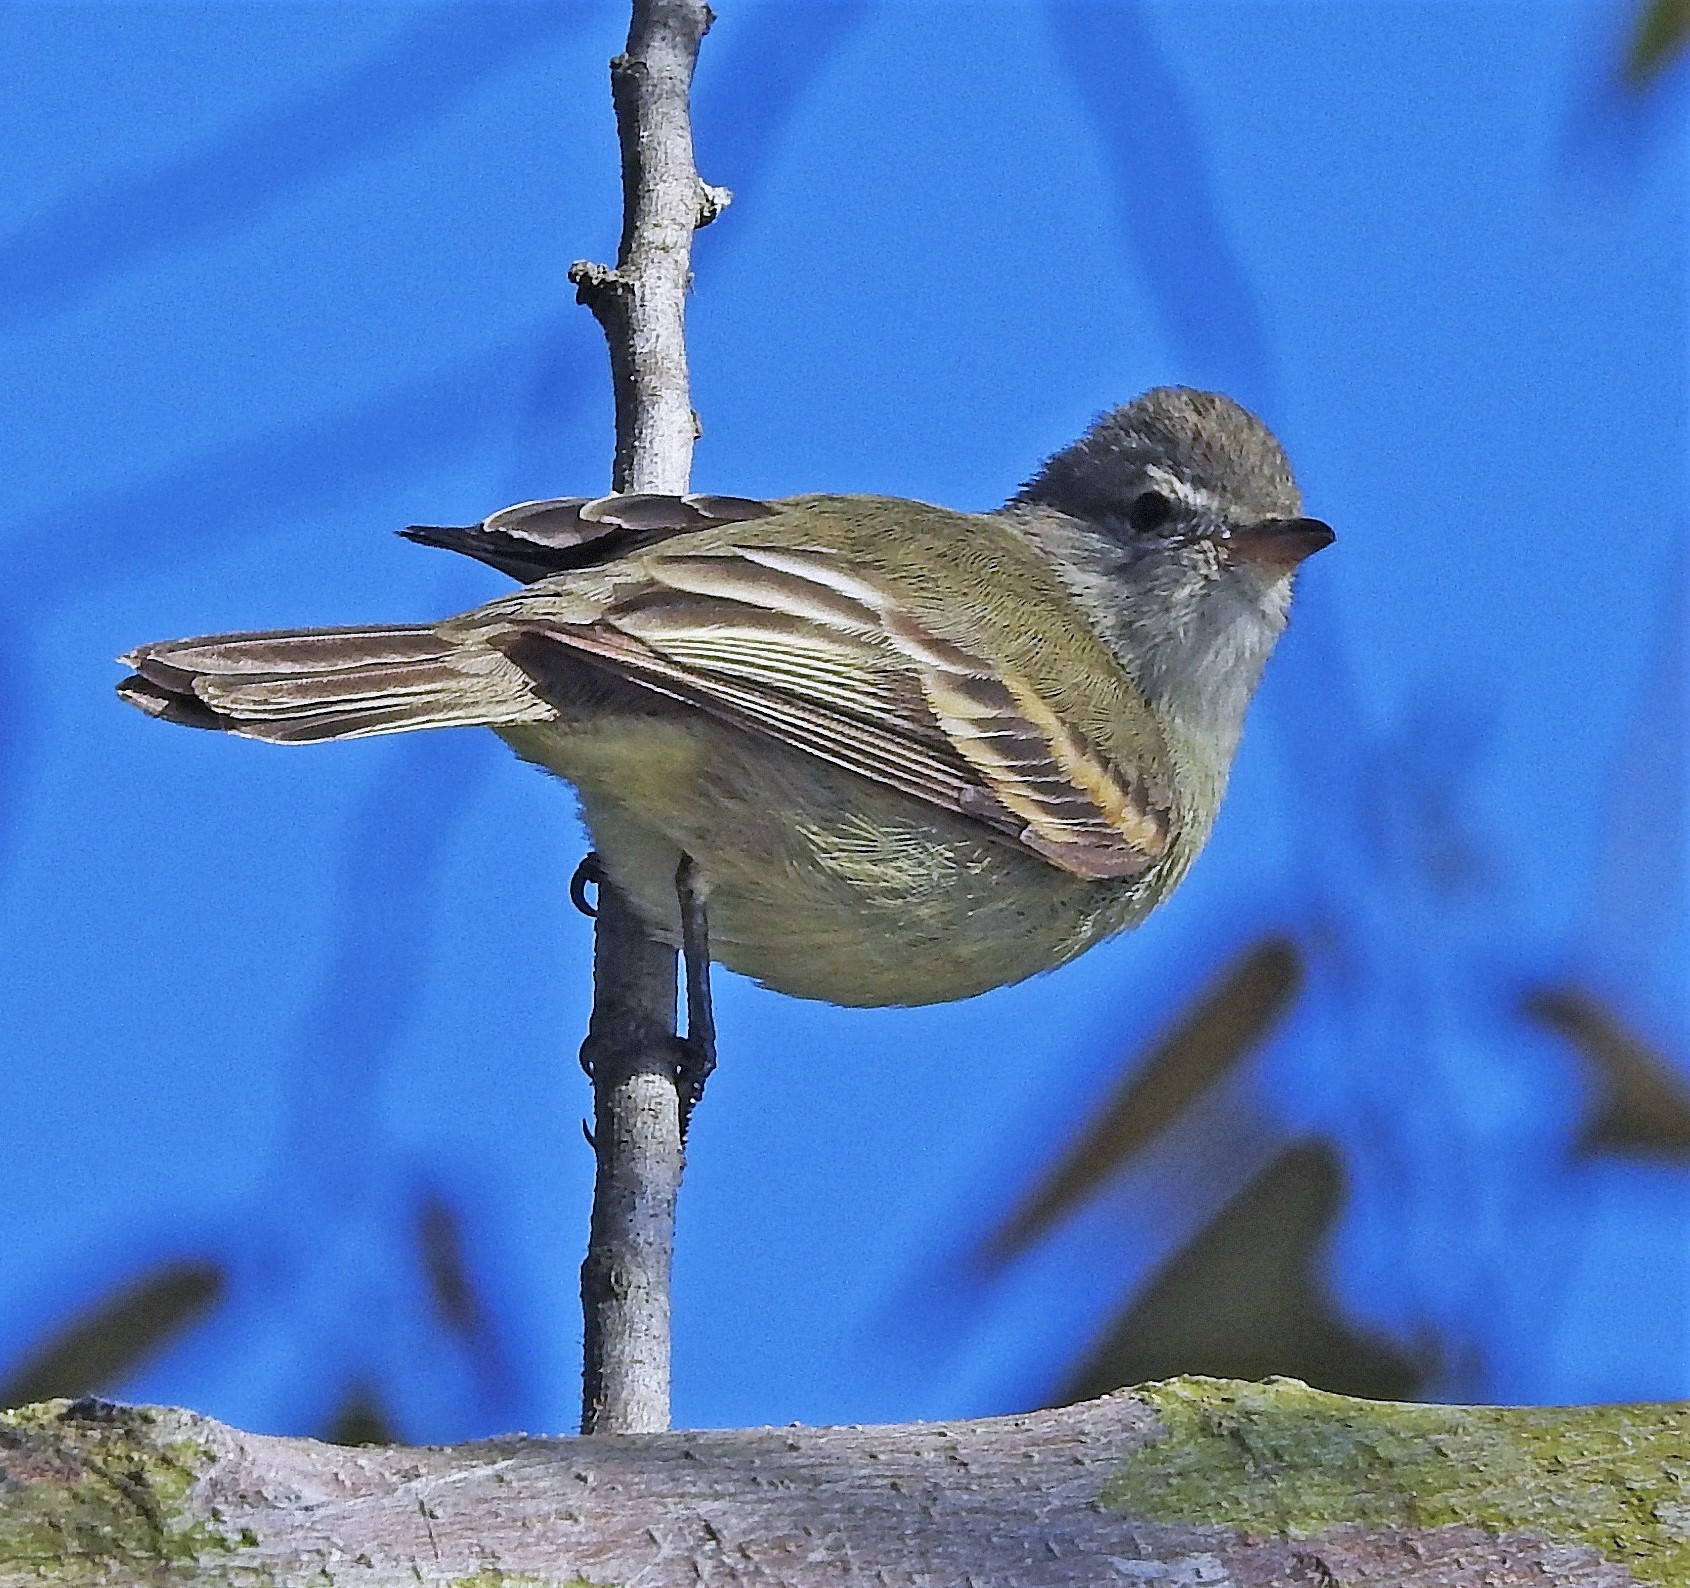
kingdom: Animalia
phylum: Chordata
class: Aves
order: Passeriformes
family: Tyrannidae
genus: Camptostoma
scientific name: Camptostoma obsoletum
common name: Southern beardless-tyrannulet
